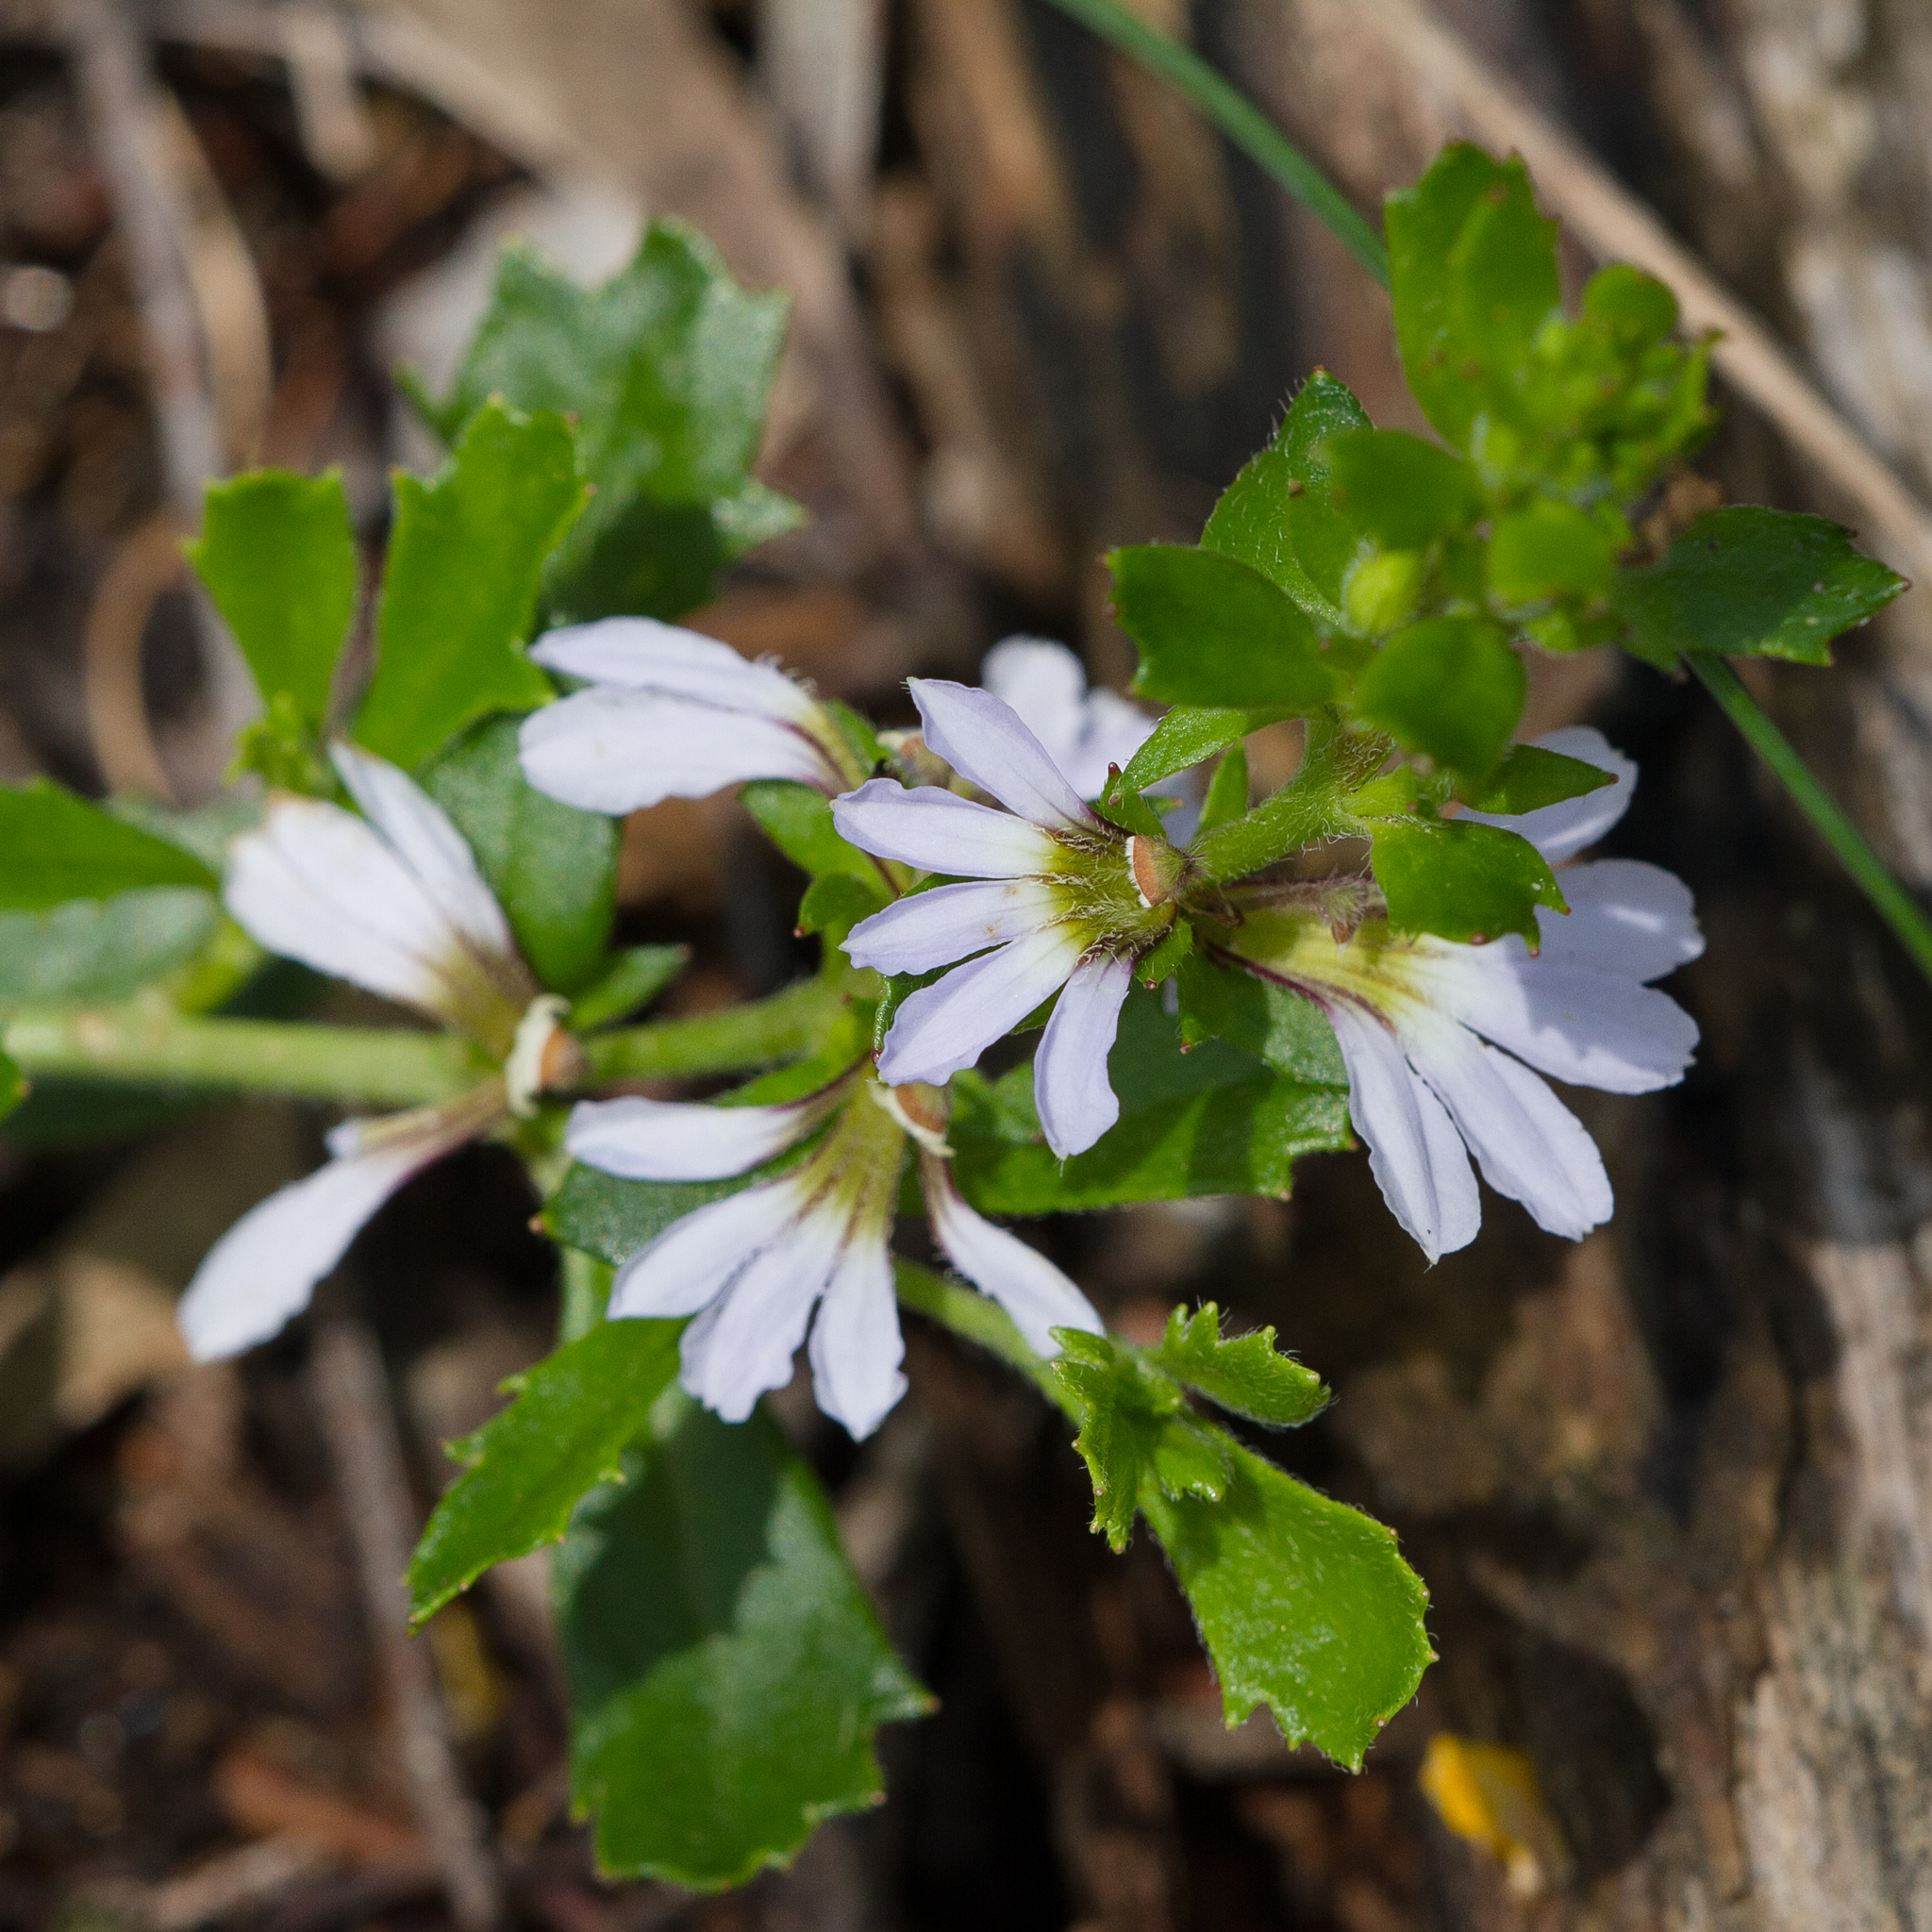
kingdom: Plantae
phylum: Tracheophyta
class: Magnoliopsida
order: Asterales
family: Goodeniaceae
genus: Scaevola
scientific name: Scaevola albida
